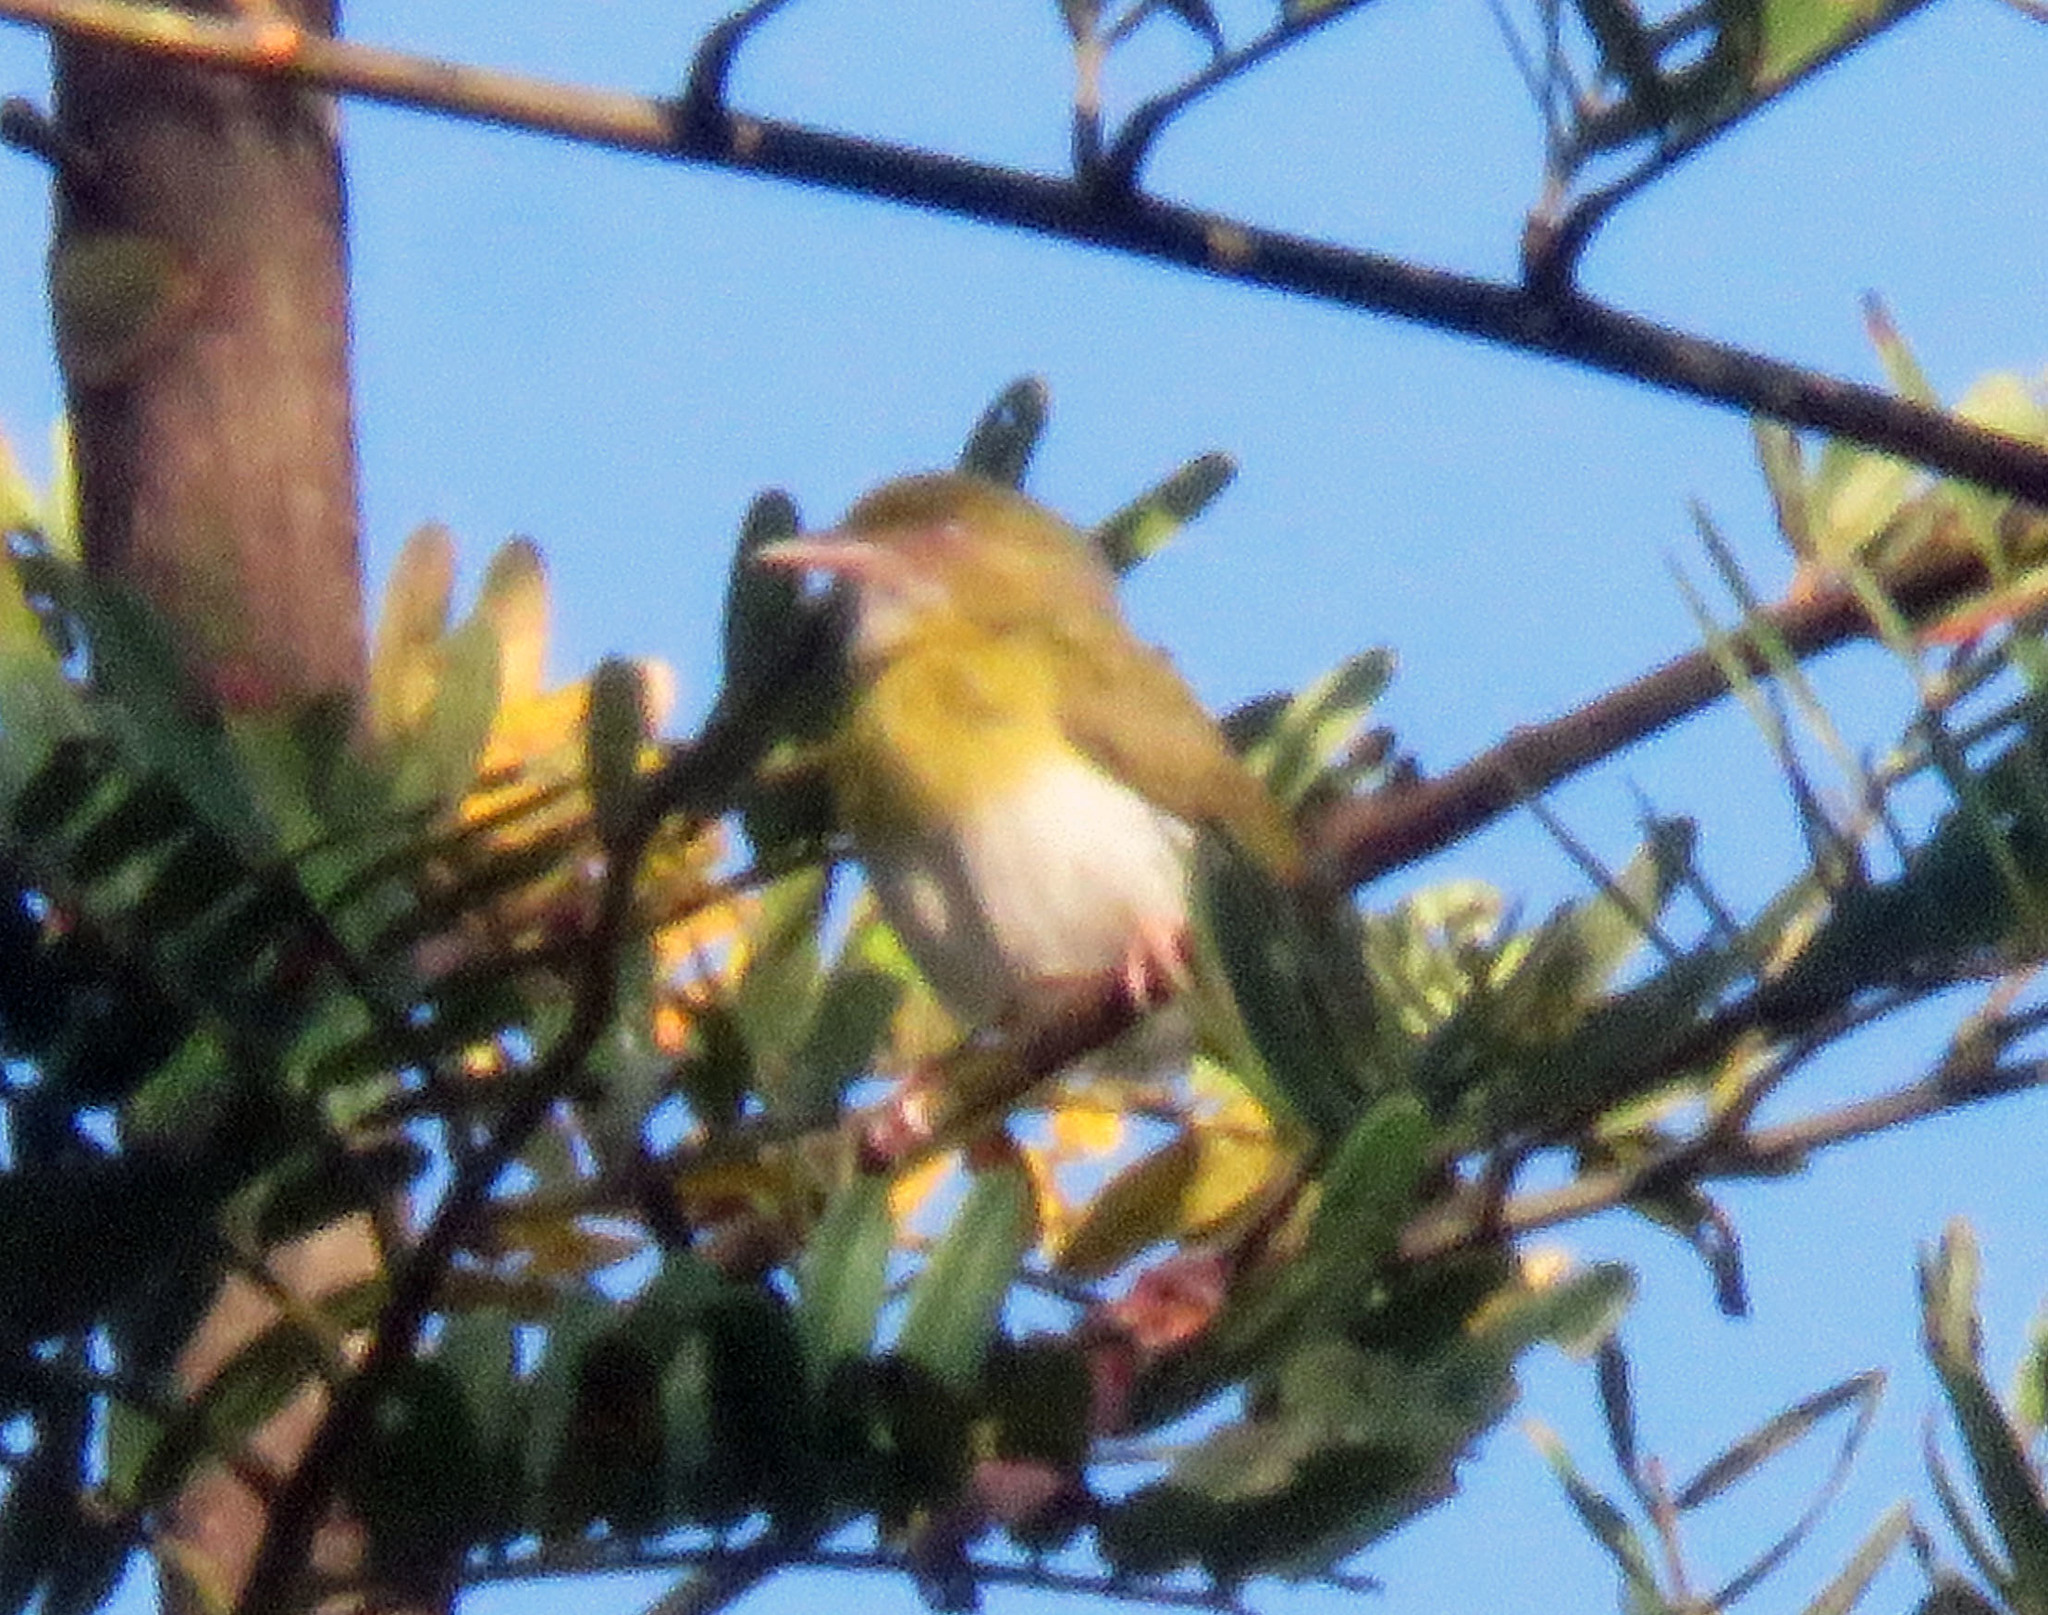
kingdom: Animalia
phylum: Chordata
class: Aves
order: Passeriformes
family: Vireonidae
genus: Hylophilus
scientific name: Hylophilus thoracicus
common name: Lemon-chested greenlet
